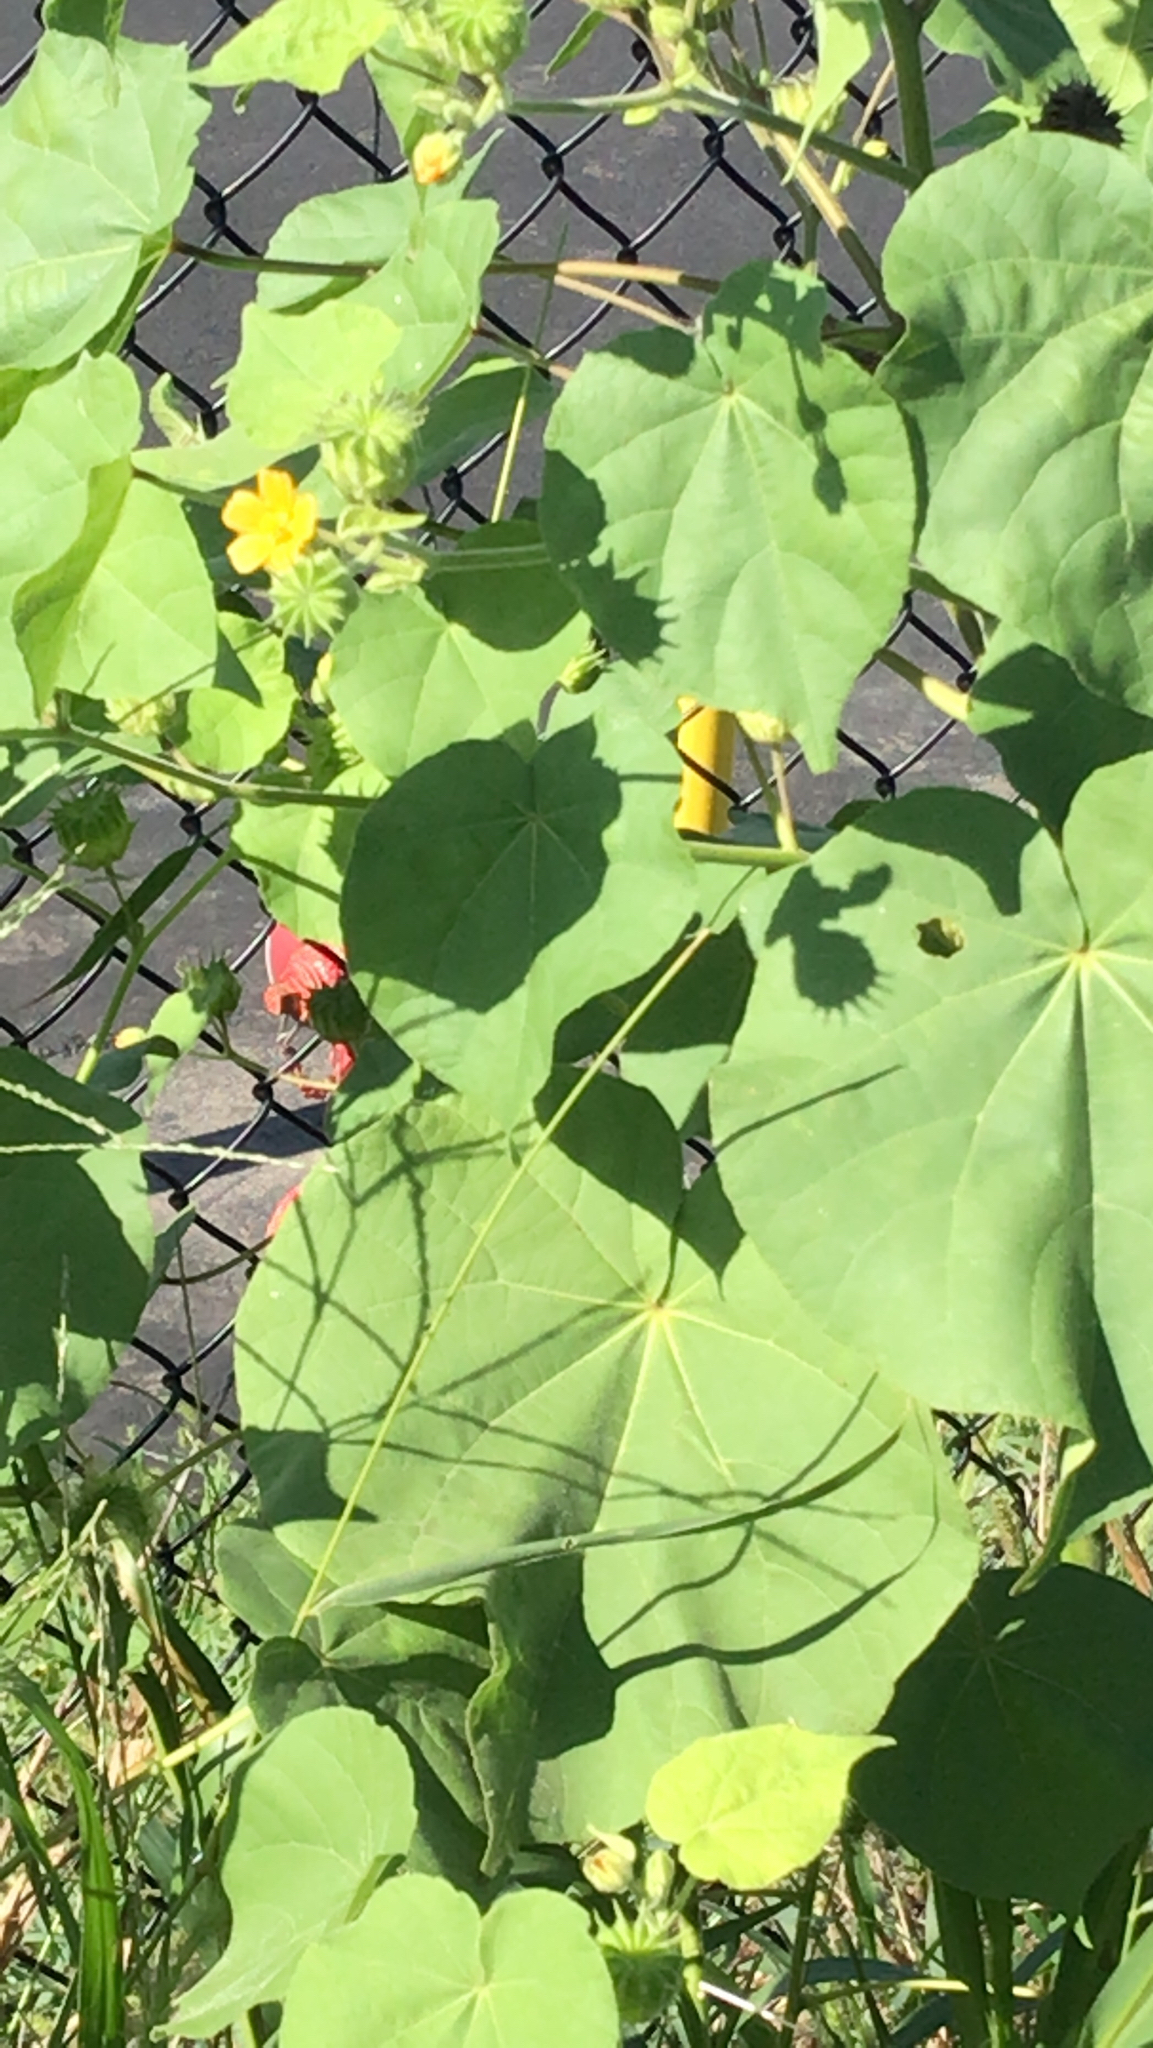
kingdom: Plantae
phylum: Tracheophyta
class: Magnoliopsida
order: Malvales
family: Malvaceae
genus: Abutilon
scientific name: Abutilon theophrasti
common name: Velvetleaf
